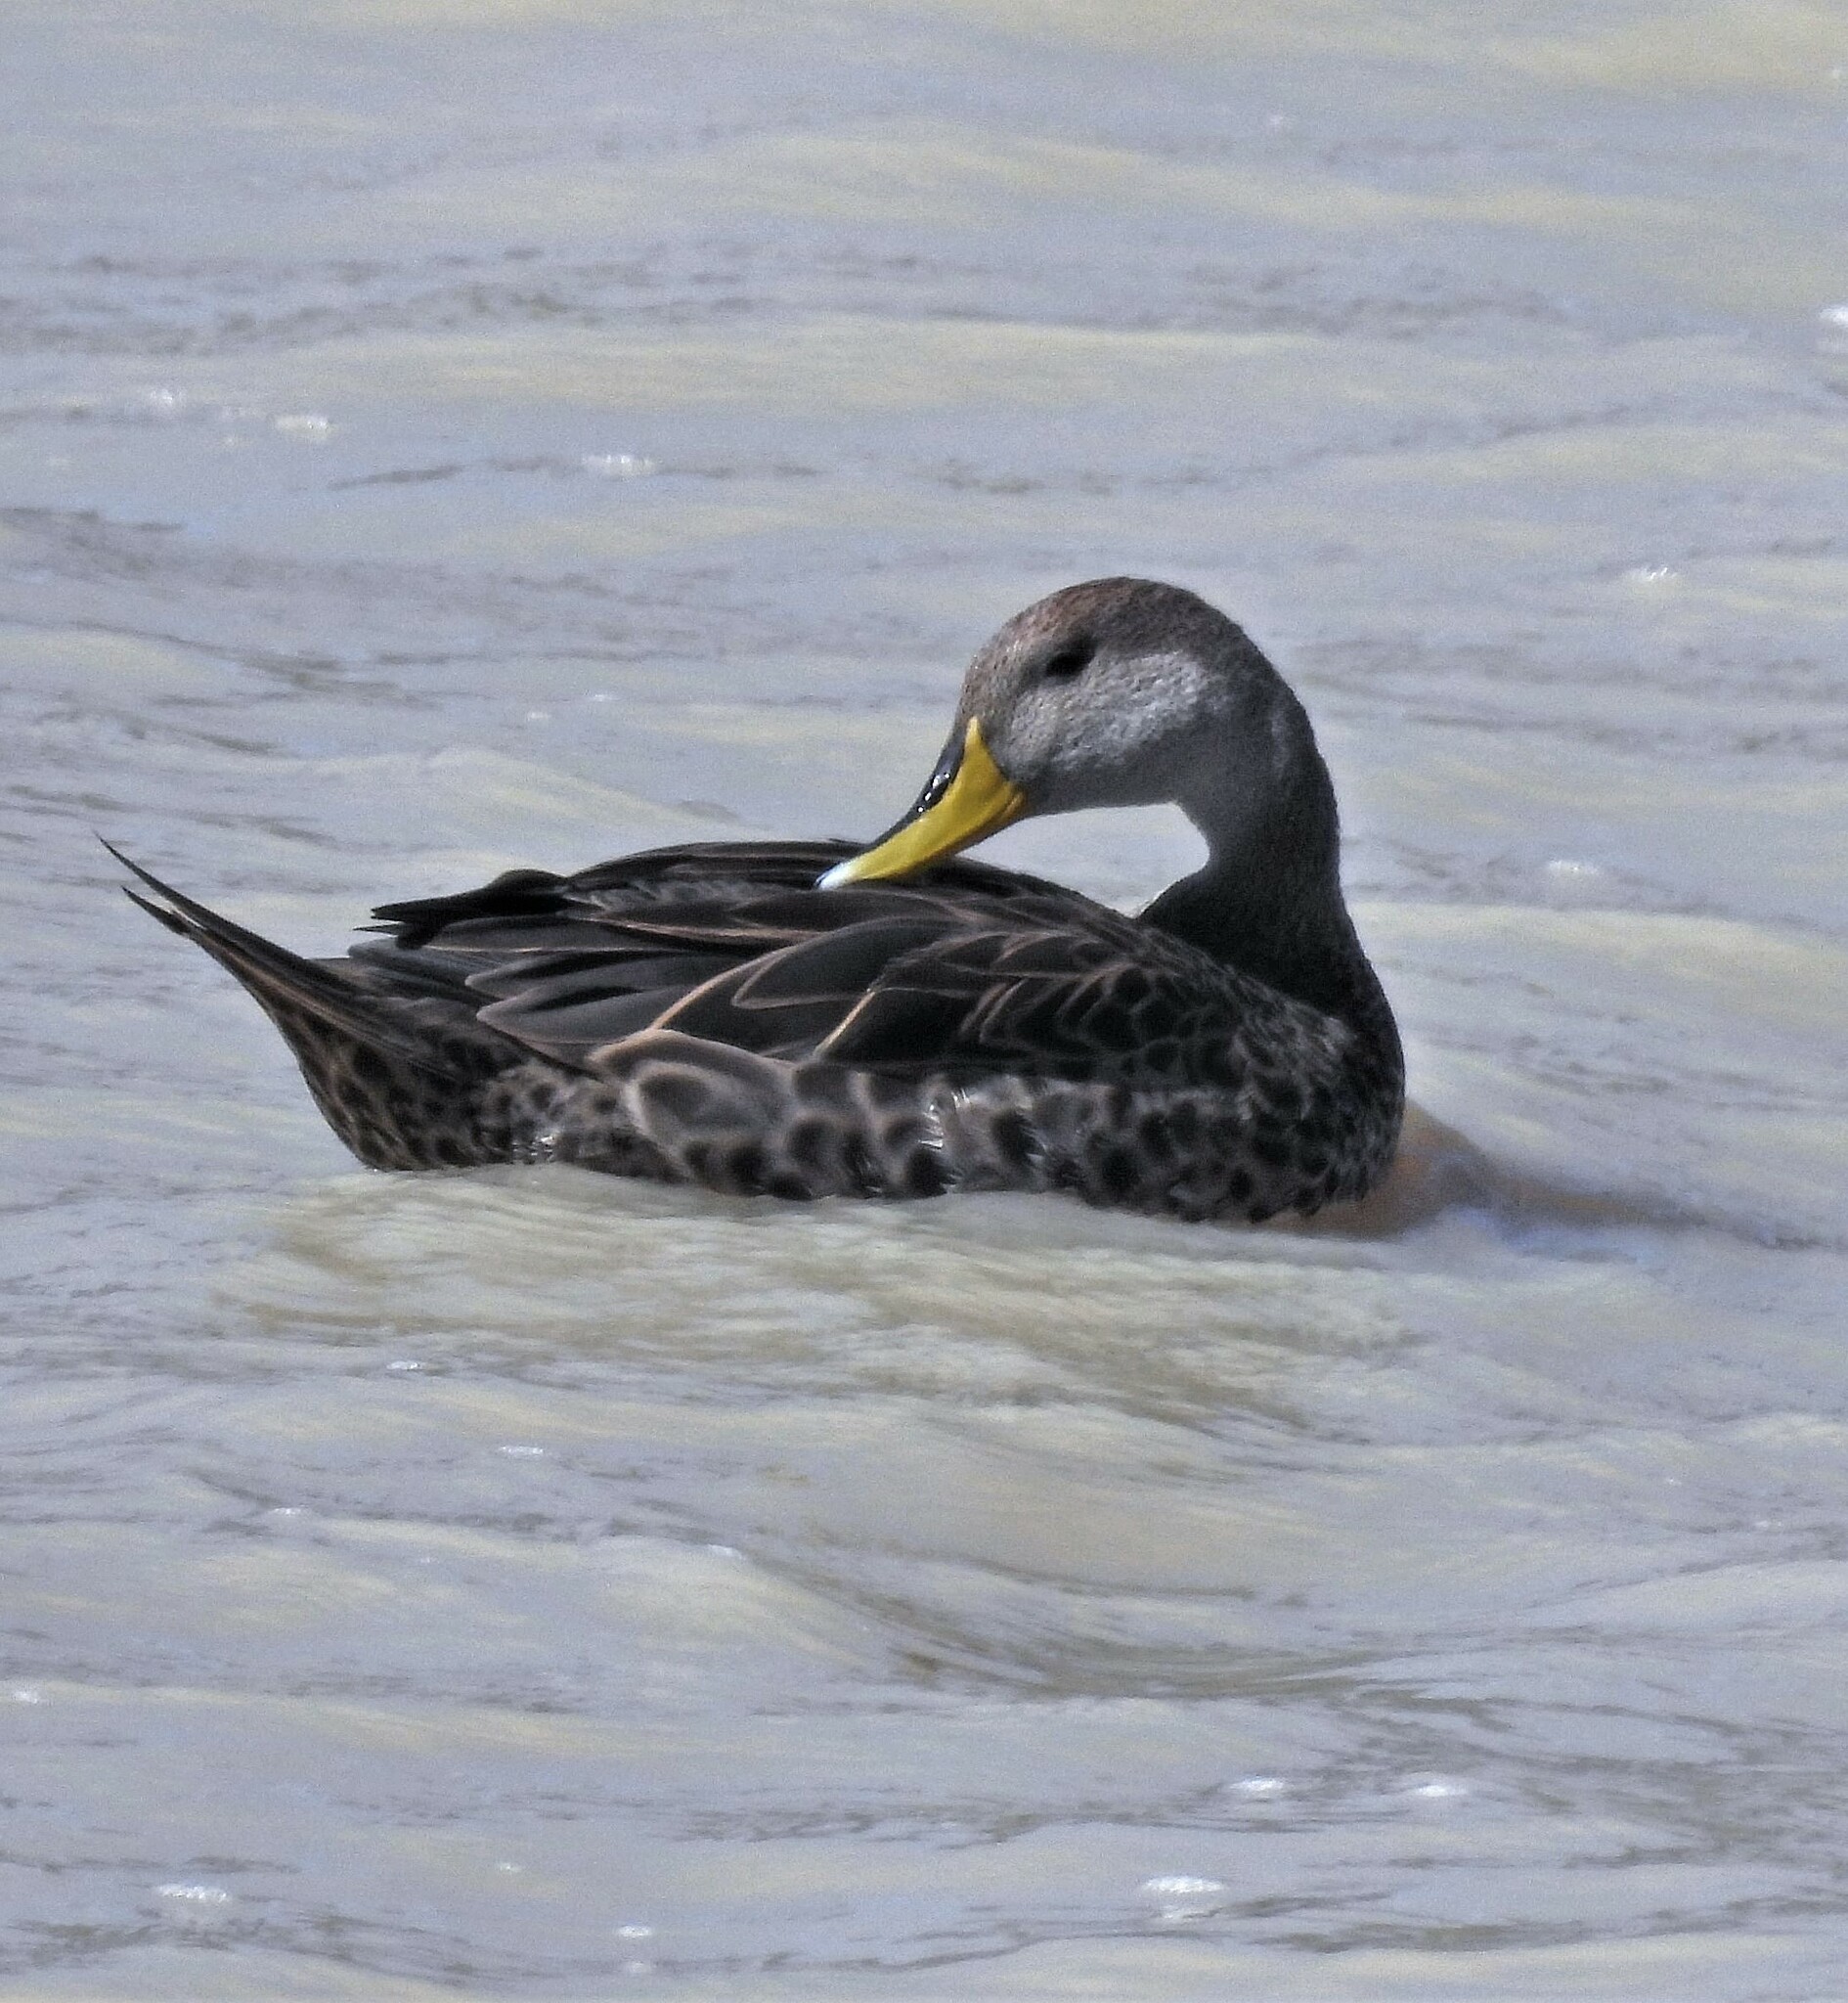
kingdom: Animalia
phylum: Chordata
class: Aves
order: Anseriformes
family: Anatidae
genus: Anas
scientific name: Anas georgica
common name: Yellow-billed pintail
